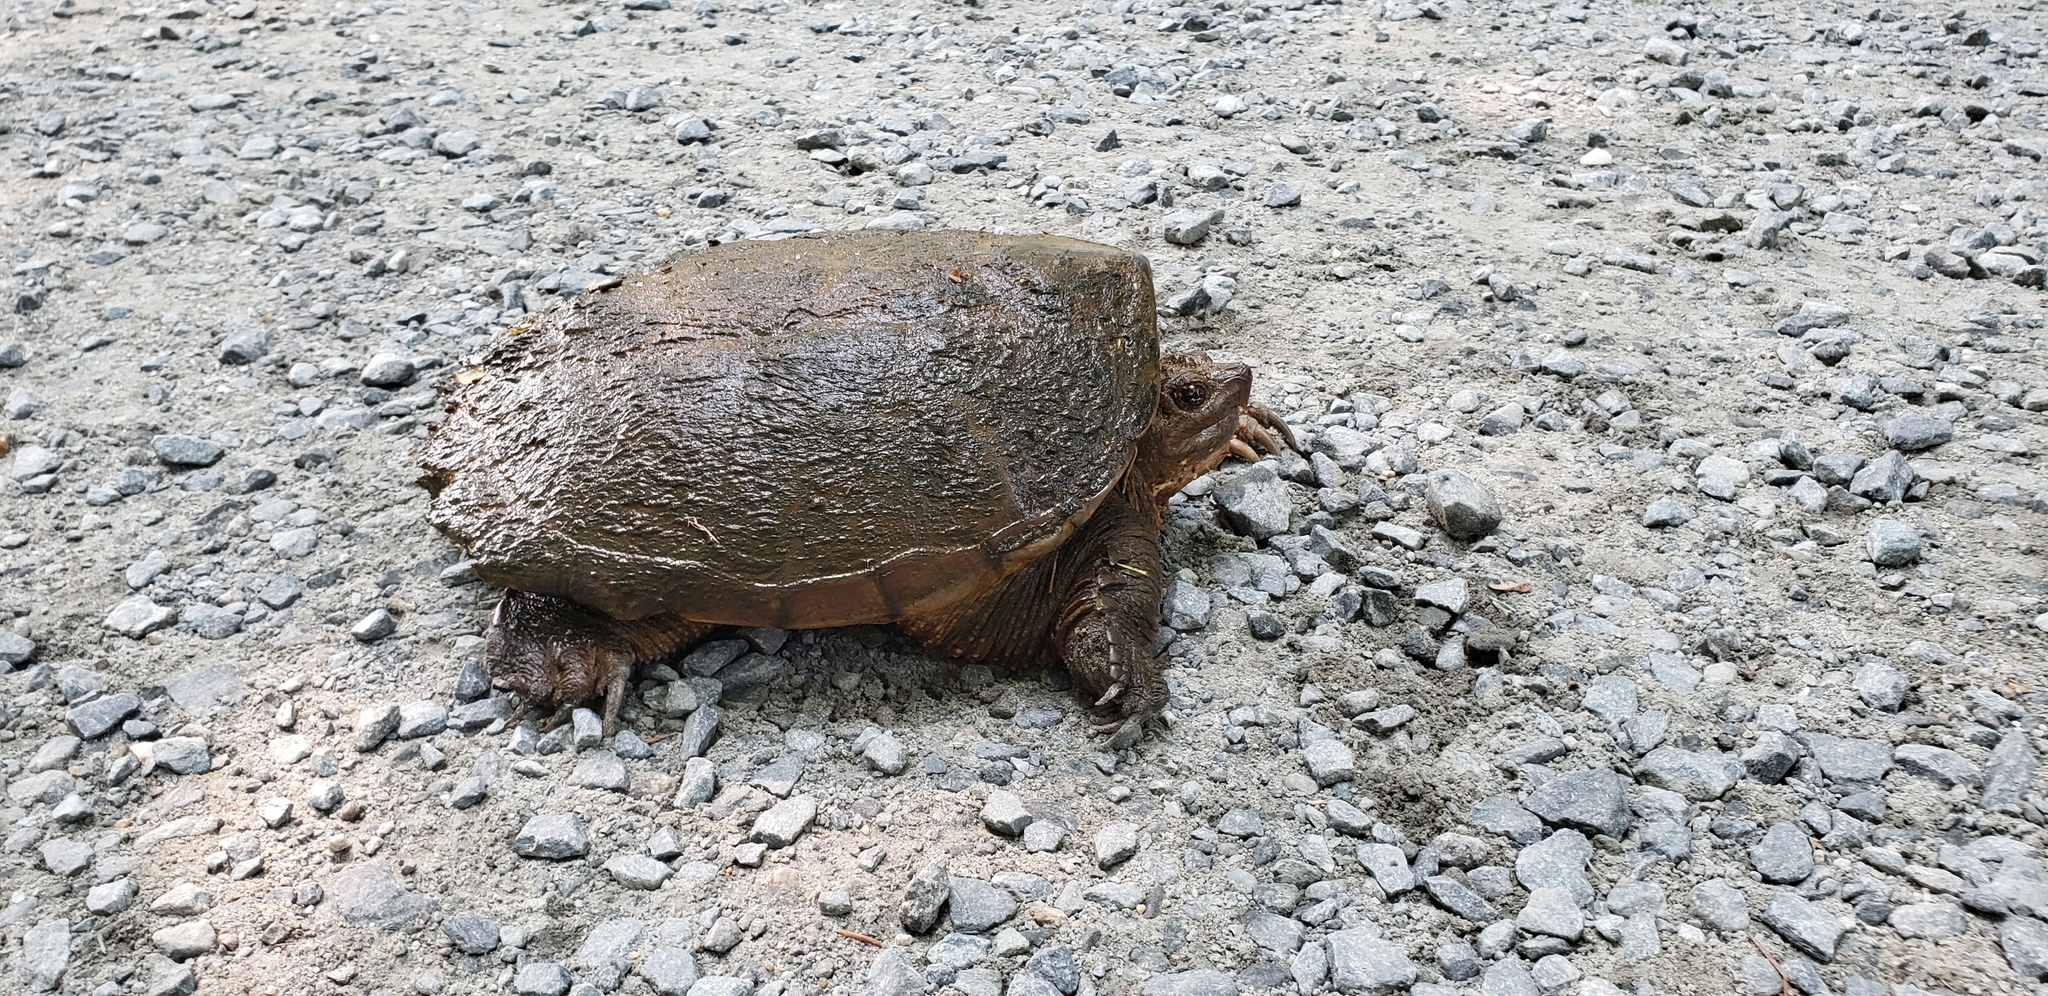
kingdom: Animalia
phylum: Chordata
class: Testudines
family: Chelydridae
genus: Chelydra
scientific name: Chelydra serpentina
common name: Common snapping turtle
